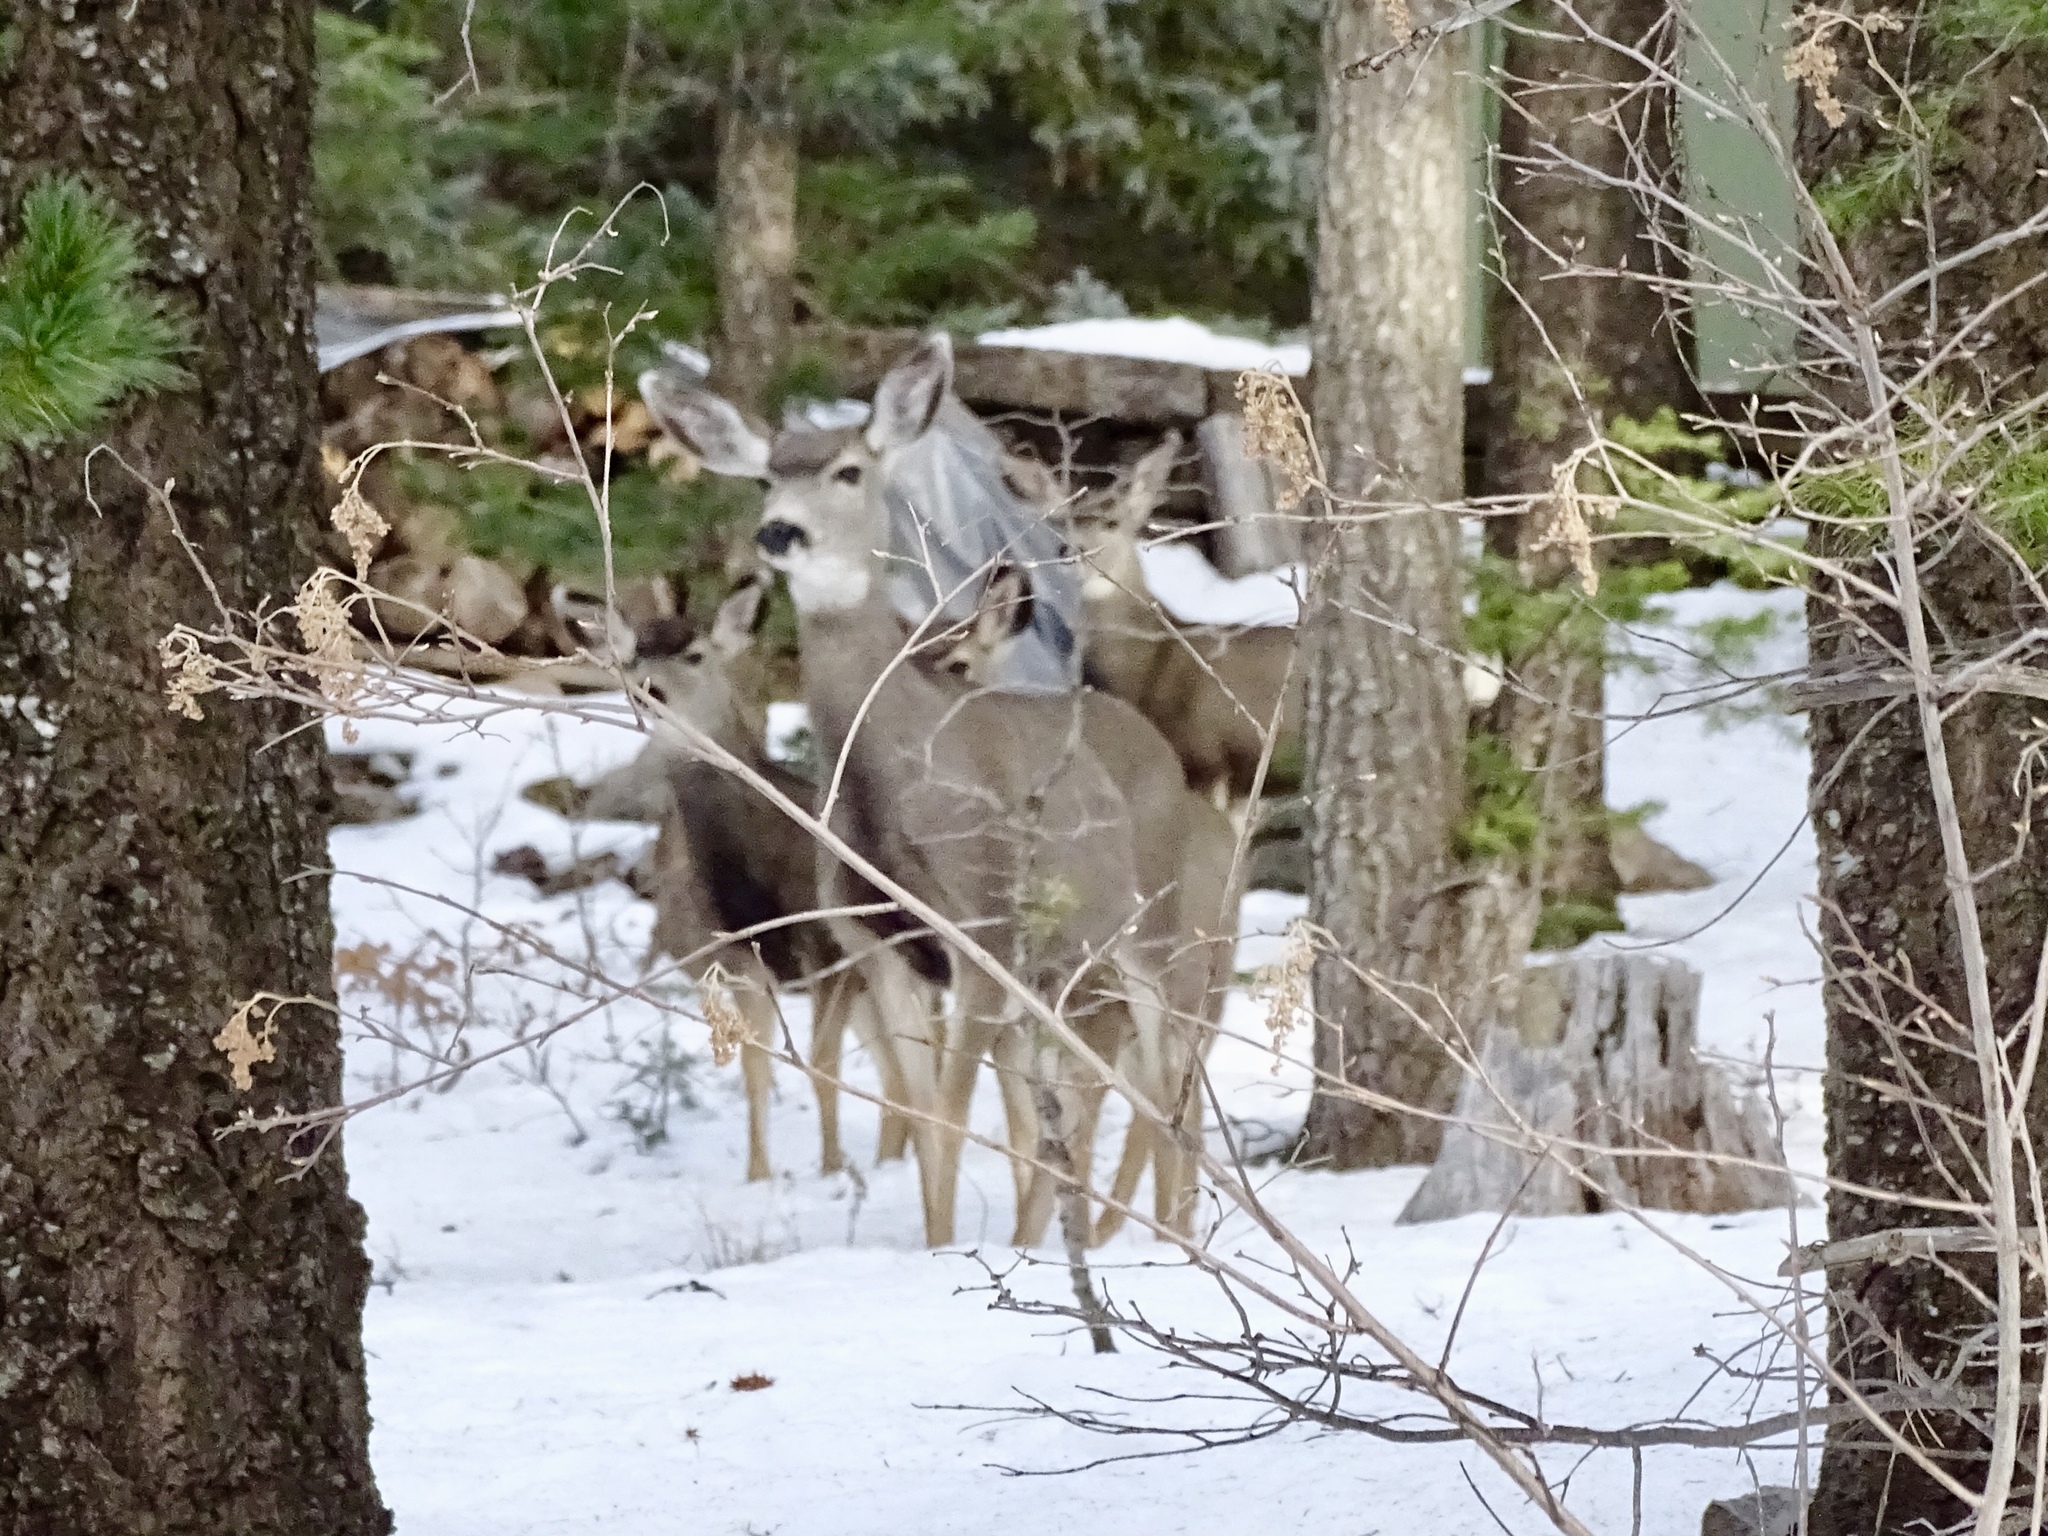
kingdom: Animalia
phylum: Chordata
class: Mammalia
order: Artiodactyla
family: Cervidae
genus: Odocoileus
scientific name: Odocoileus hemionus
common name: Mule deer
